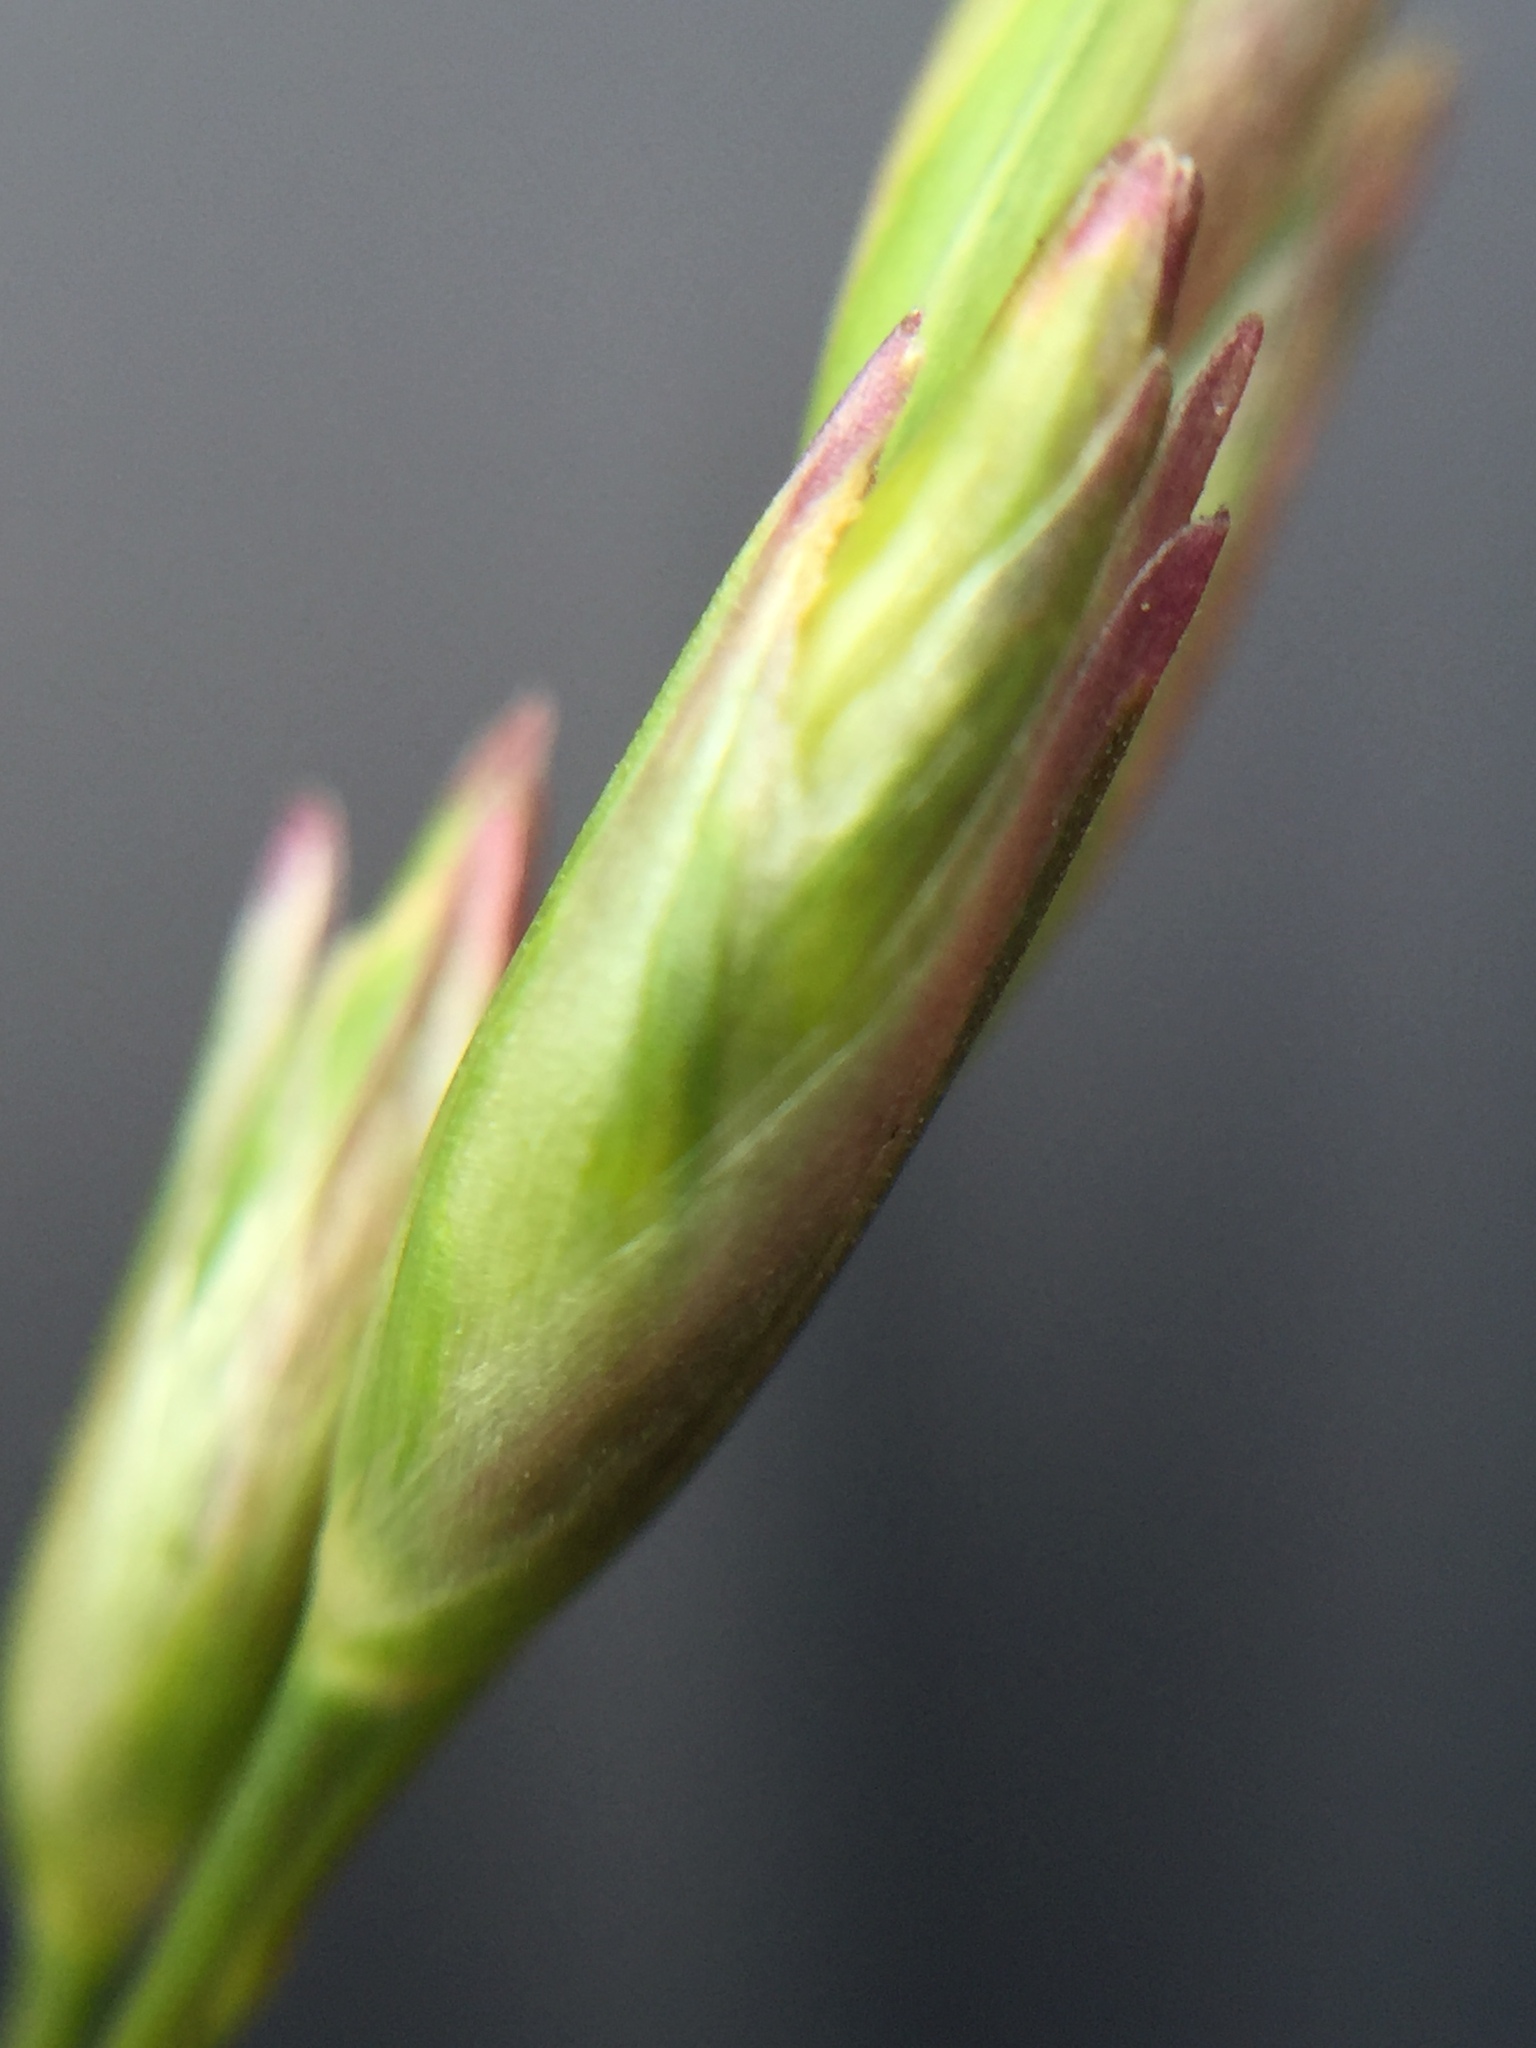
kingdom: Plantae
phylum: Tracheophyta
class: Liliopsida
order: Poales
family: Poaceae
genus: Danthonia
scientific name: Danthonia decumbens
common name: Common heathgrass
